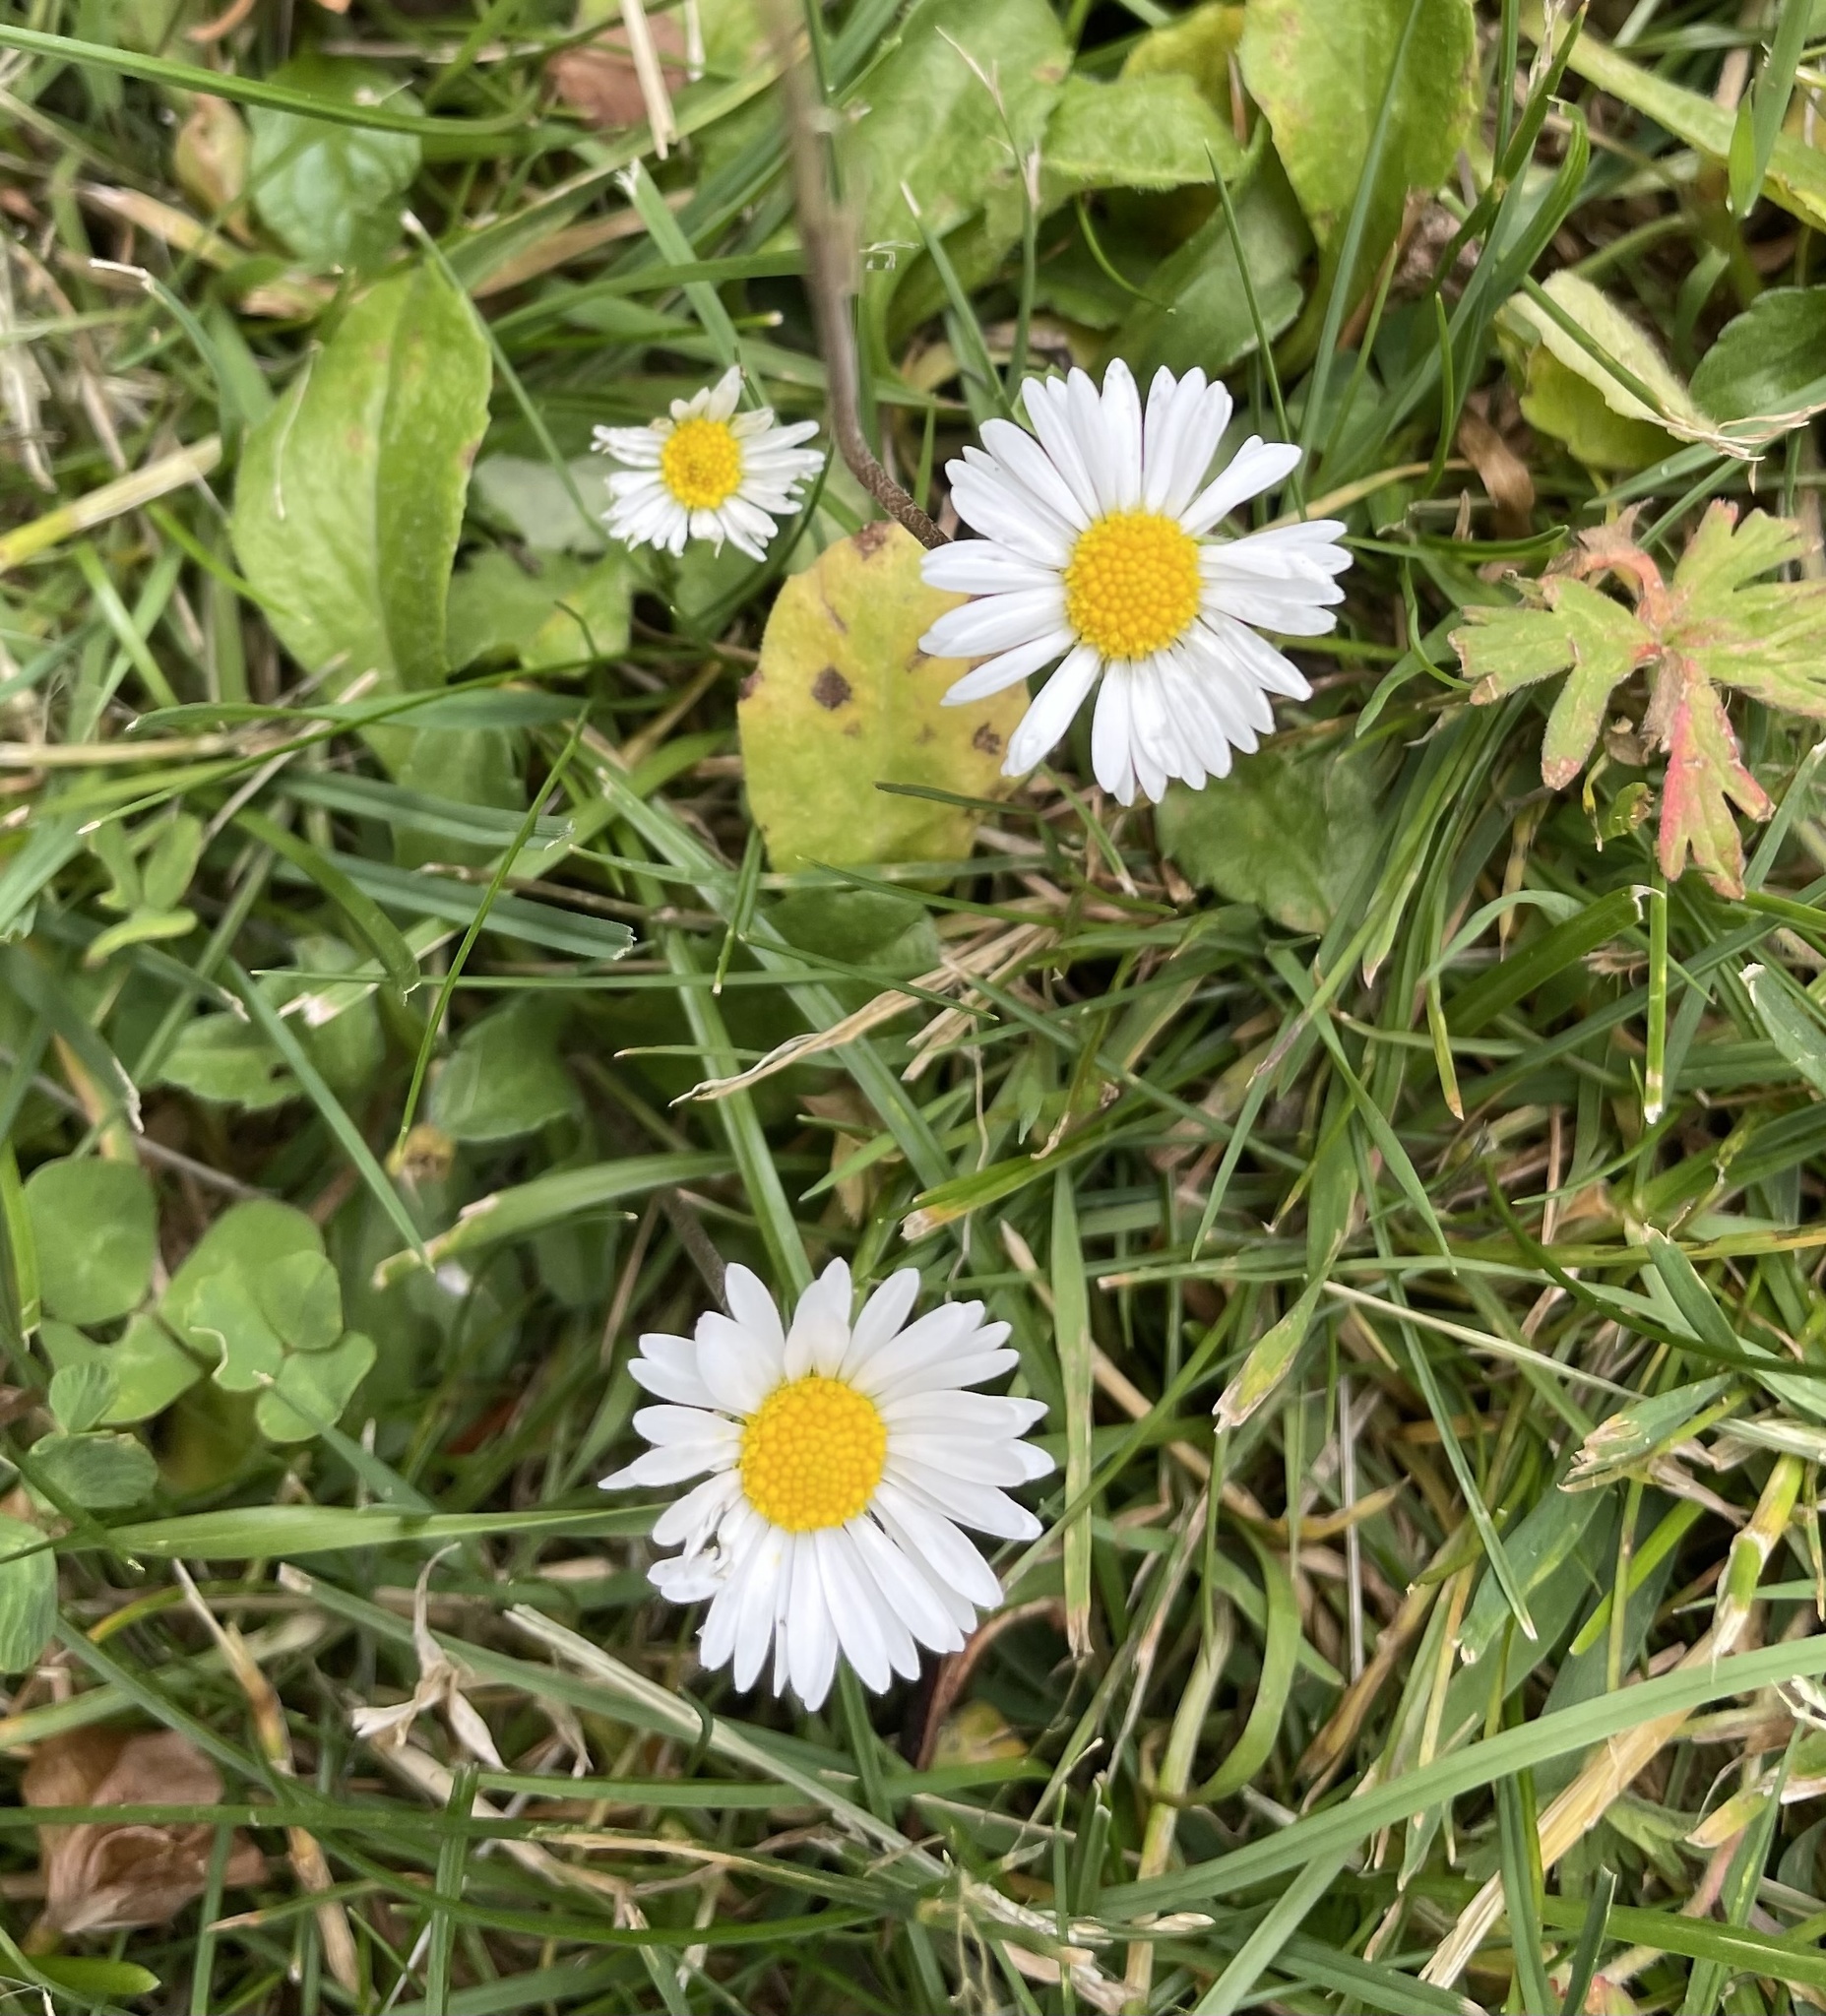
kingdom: Plantae
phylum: Tracheophyta
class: Magnoliopsida
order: Asterales
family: Asteraceae
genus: Bellis
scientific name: Bellis perennis
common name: Lawndaisy
